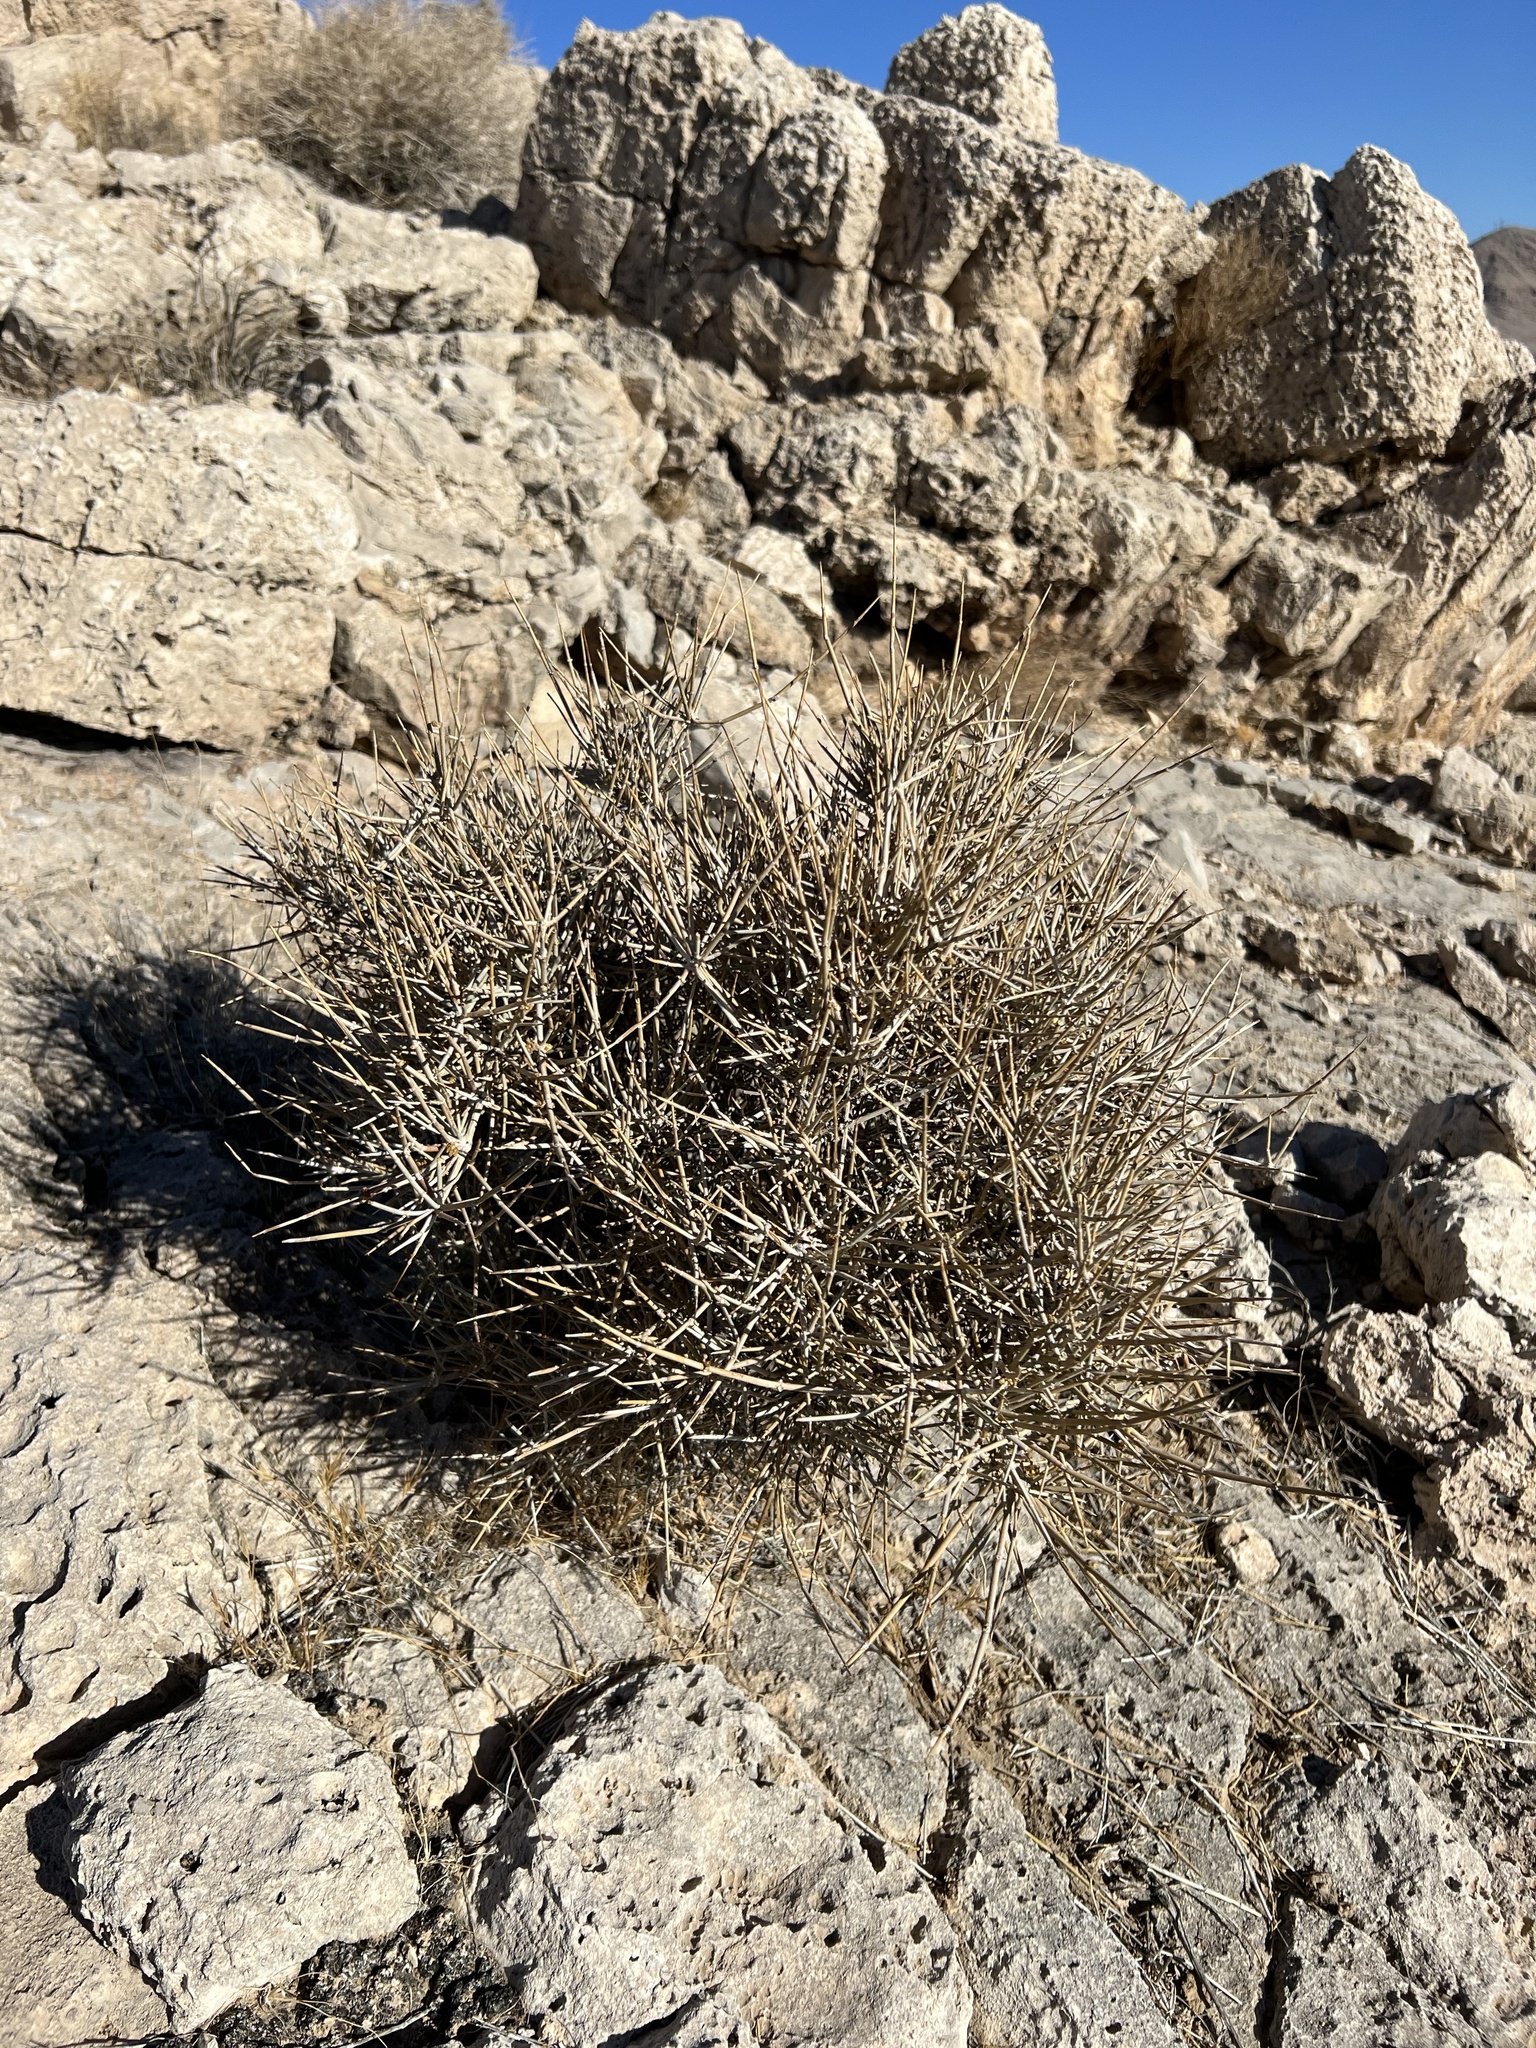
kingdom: Plantae
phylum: Tracheophyta
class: Gnetopsida
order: Ephedrales
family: Ephedraceae
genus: Ephedra
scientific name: Ephedra nevadensis
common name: Gray ephedra
